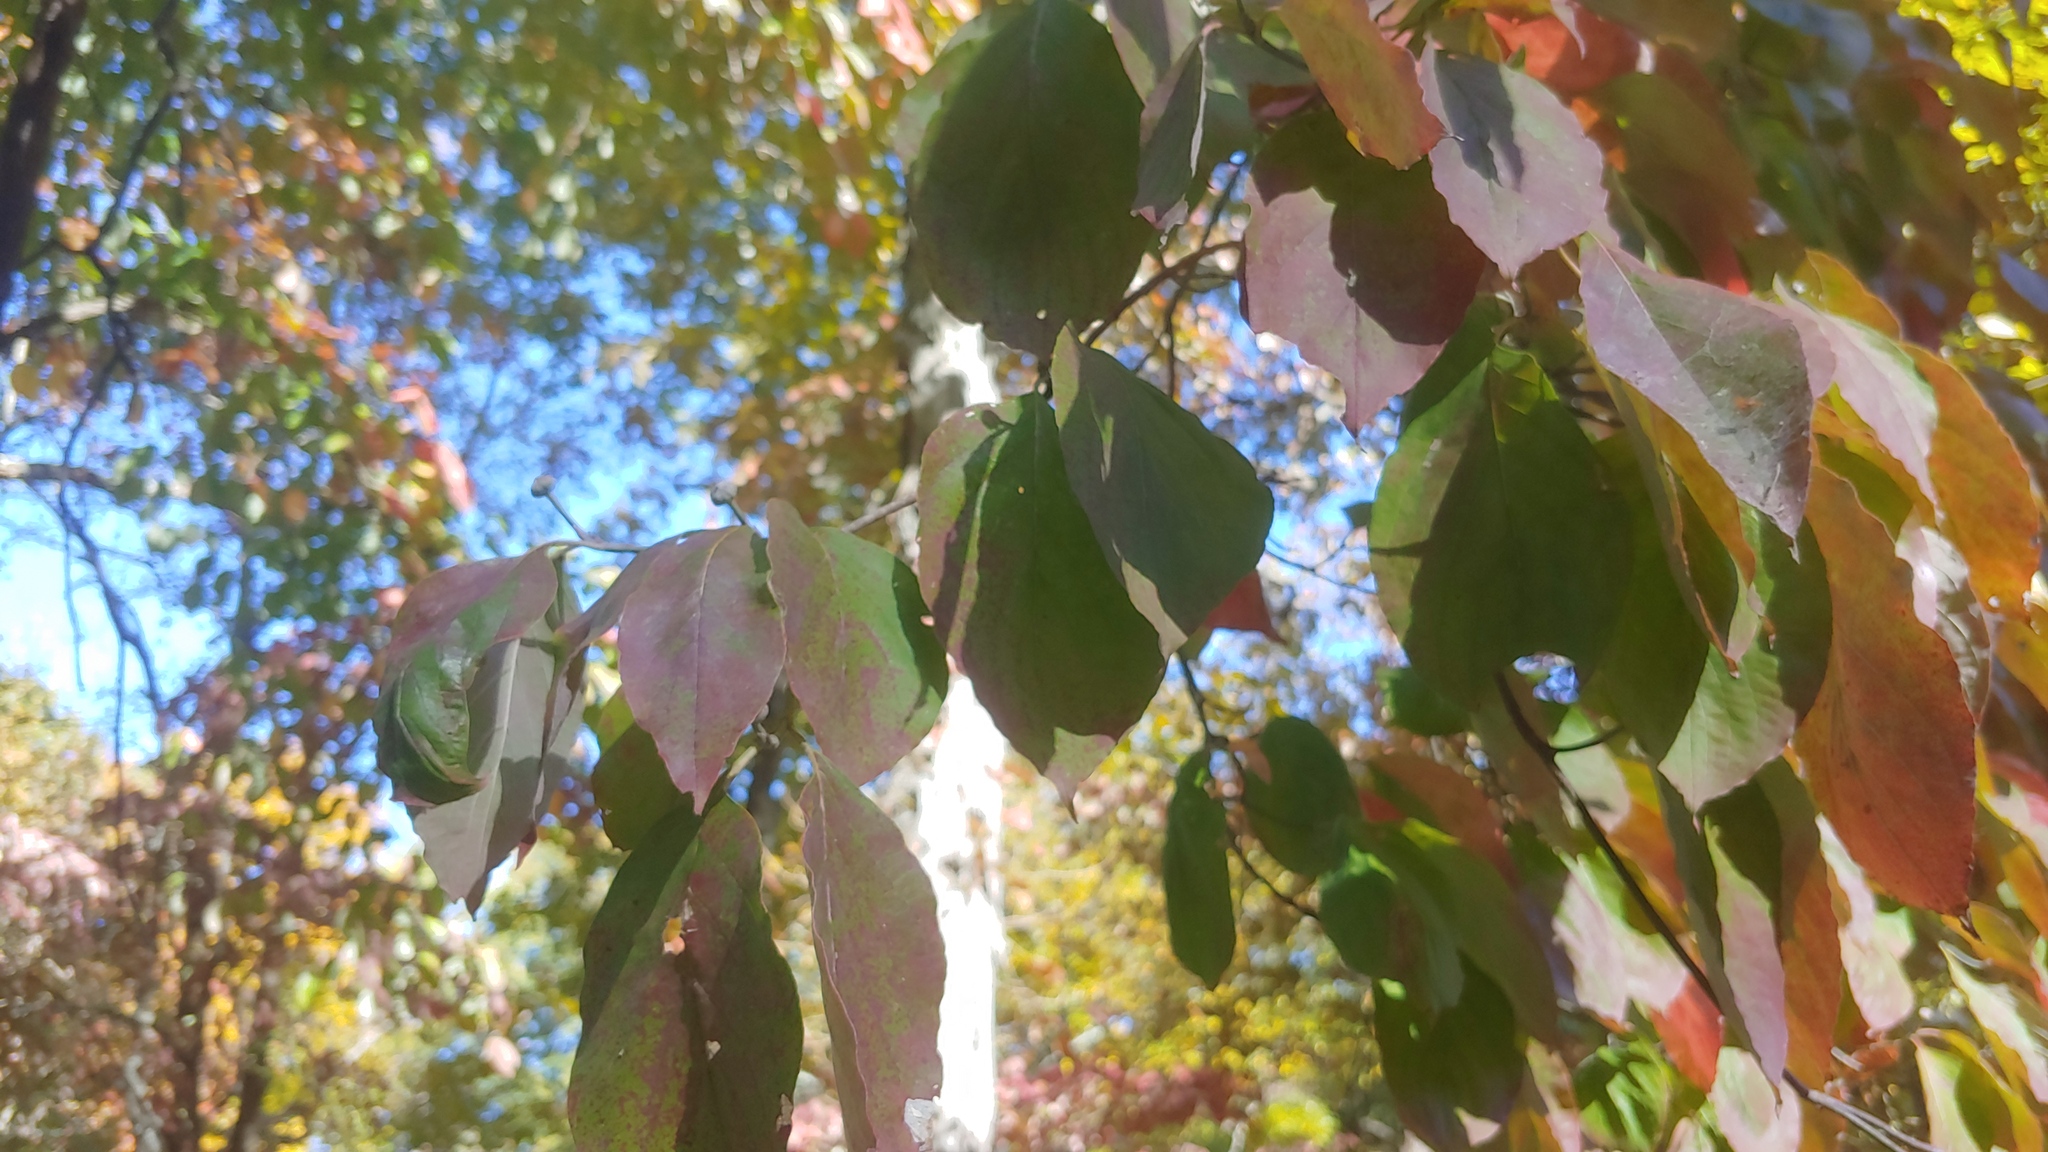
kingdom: Plantae
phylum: Tracheophyta
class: Magnoliopsida
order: Cornales
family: Cornaceae
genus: Cornus
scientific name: Cornus florida
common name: Flowering dogwood
